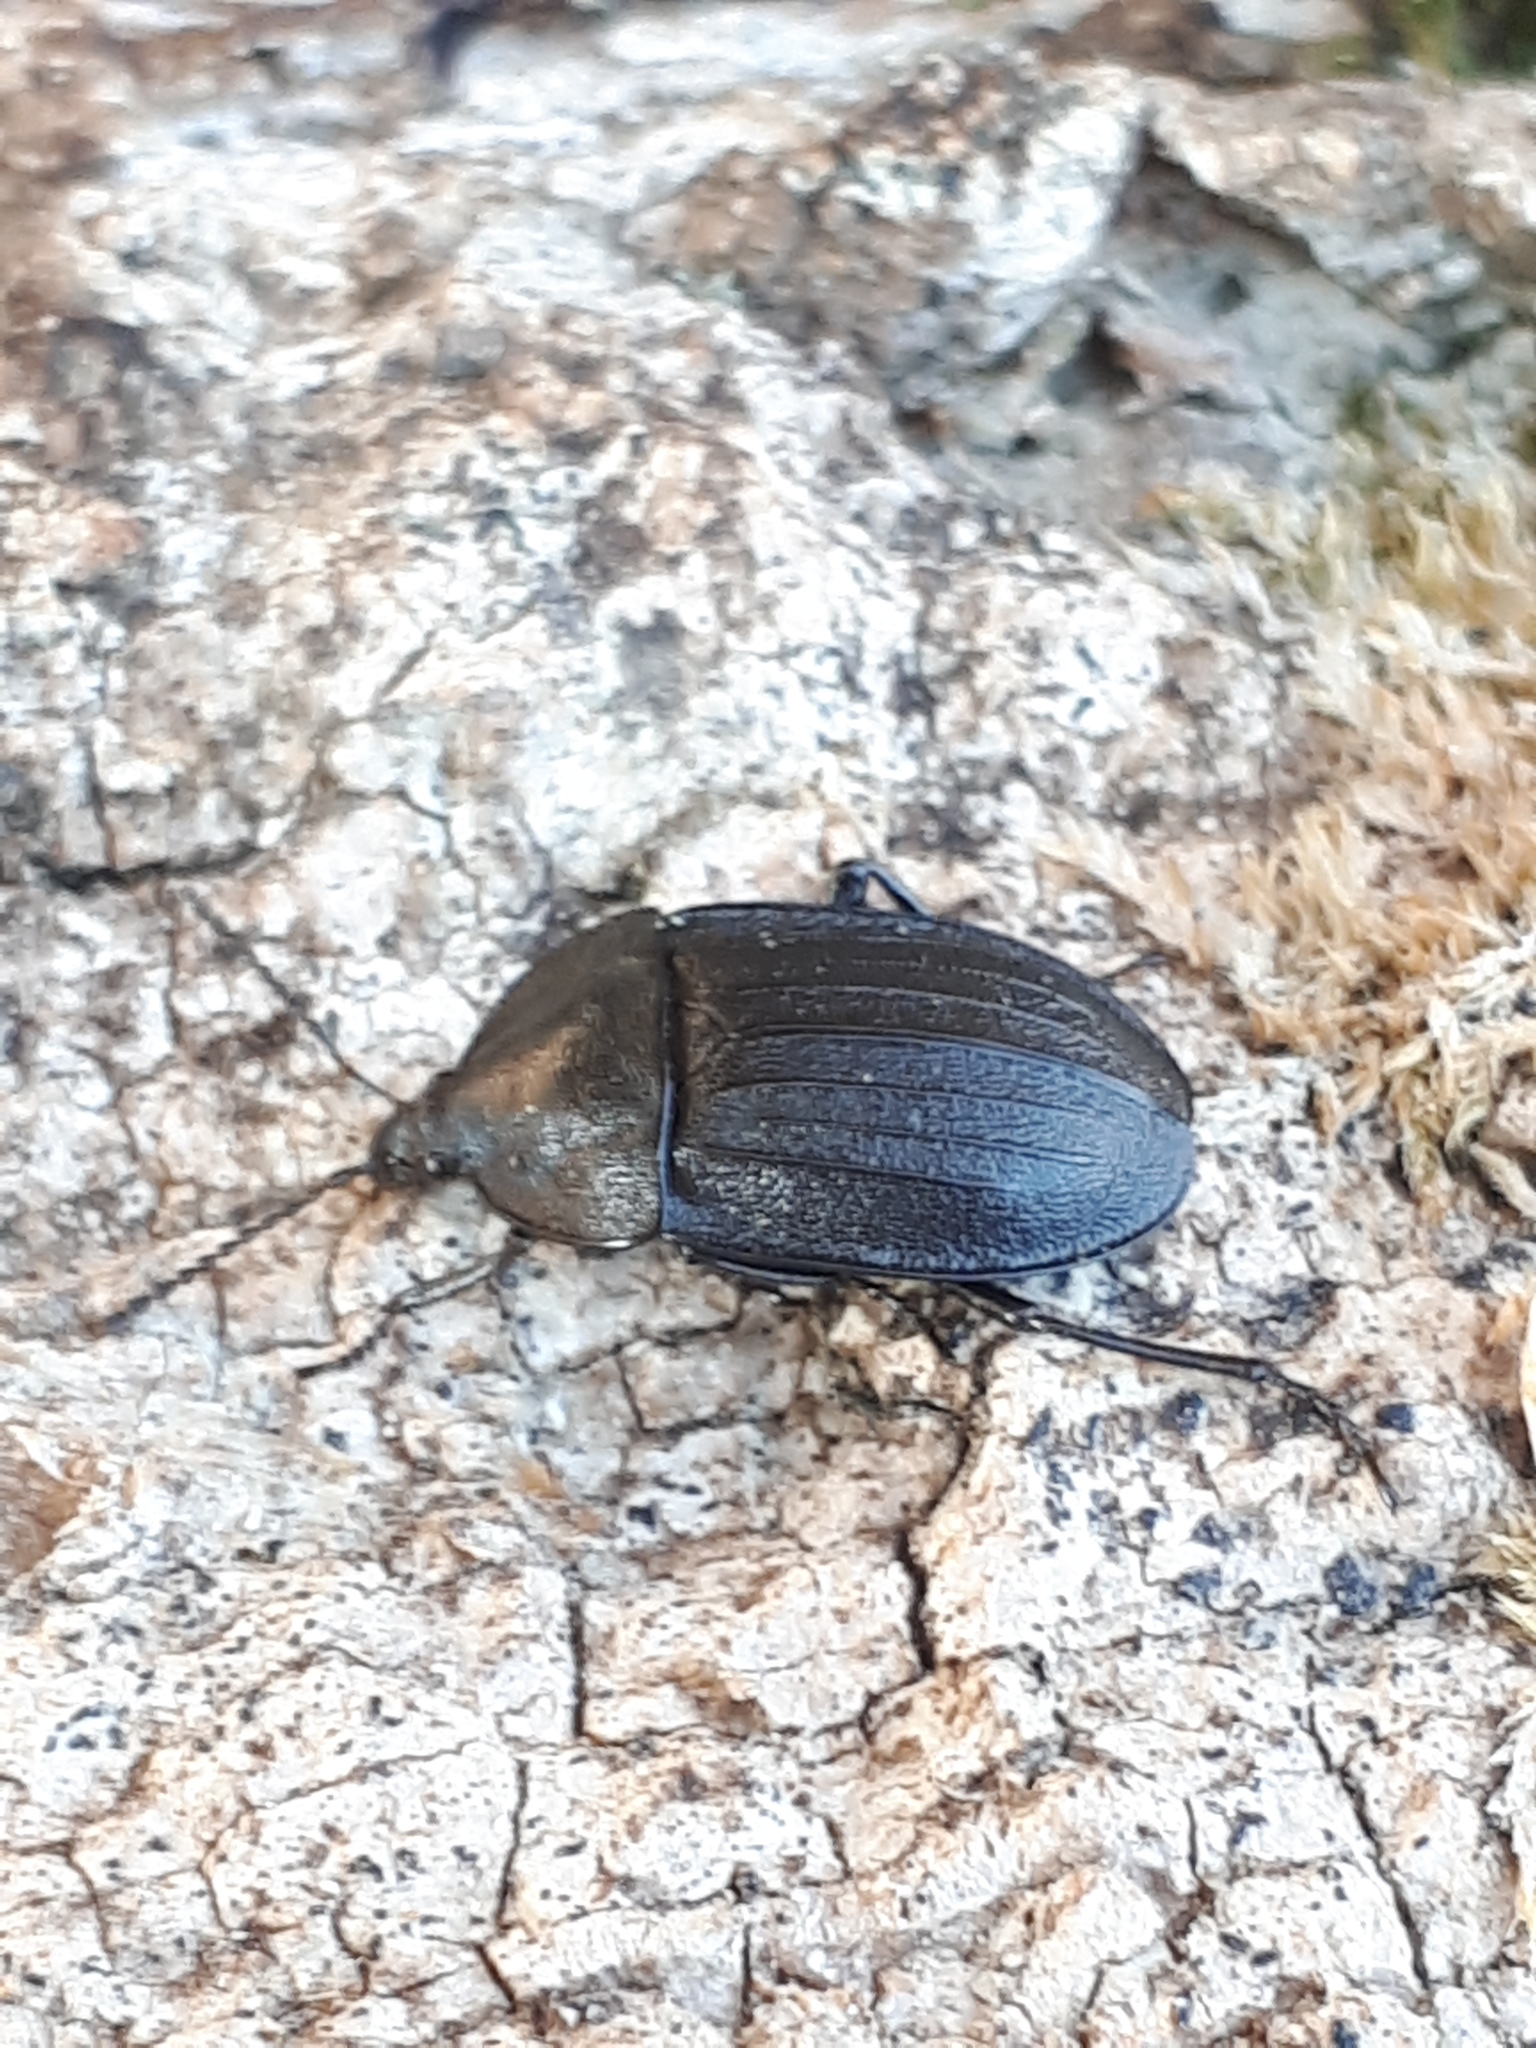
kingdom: Animalia
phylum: Arthropoda
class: Insecta
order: Coleoptera
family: Staphylinidae
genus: Silpha
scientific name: Silpha atrata
